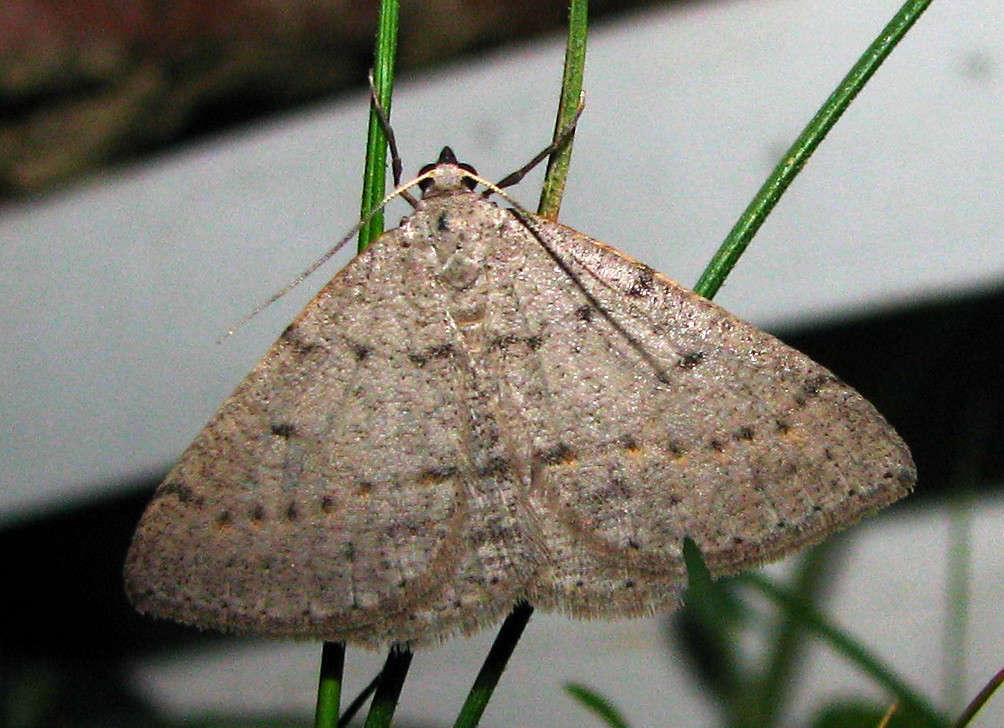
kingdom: Animalia
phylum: Arthropoda
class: Insecta
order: Lepidoptera
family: Geometridae
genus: Taxeotis
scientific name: Taxeotis reserata
